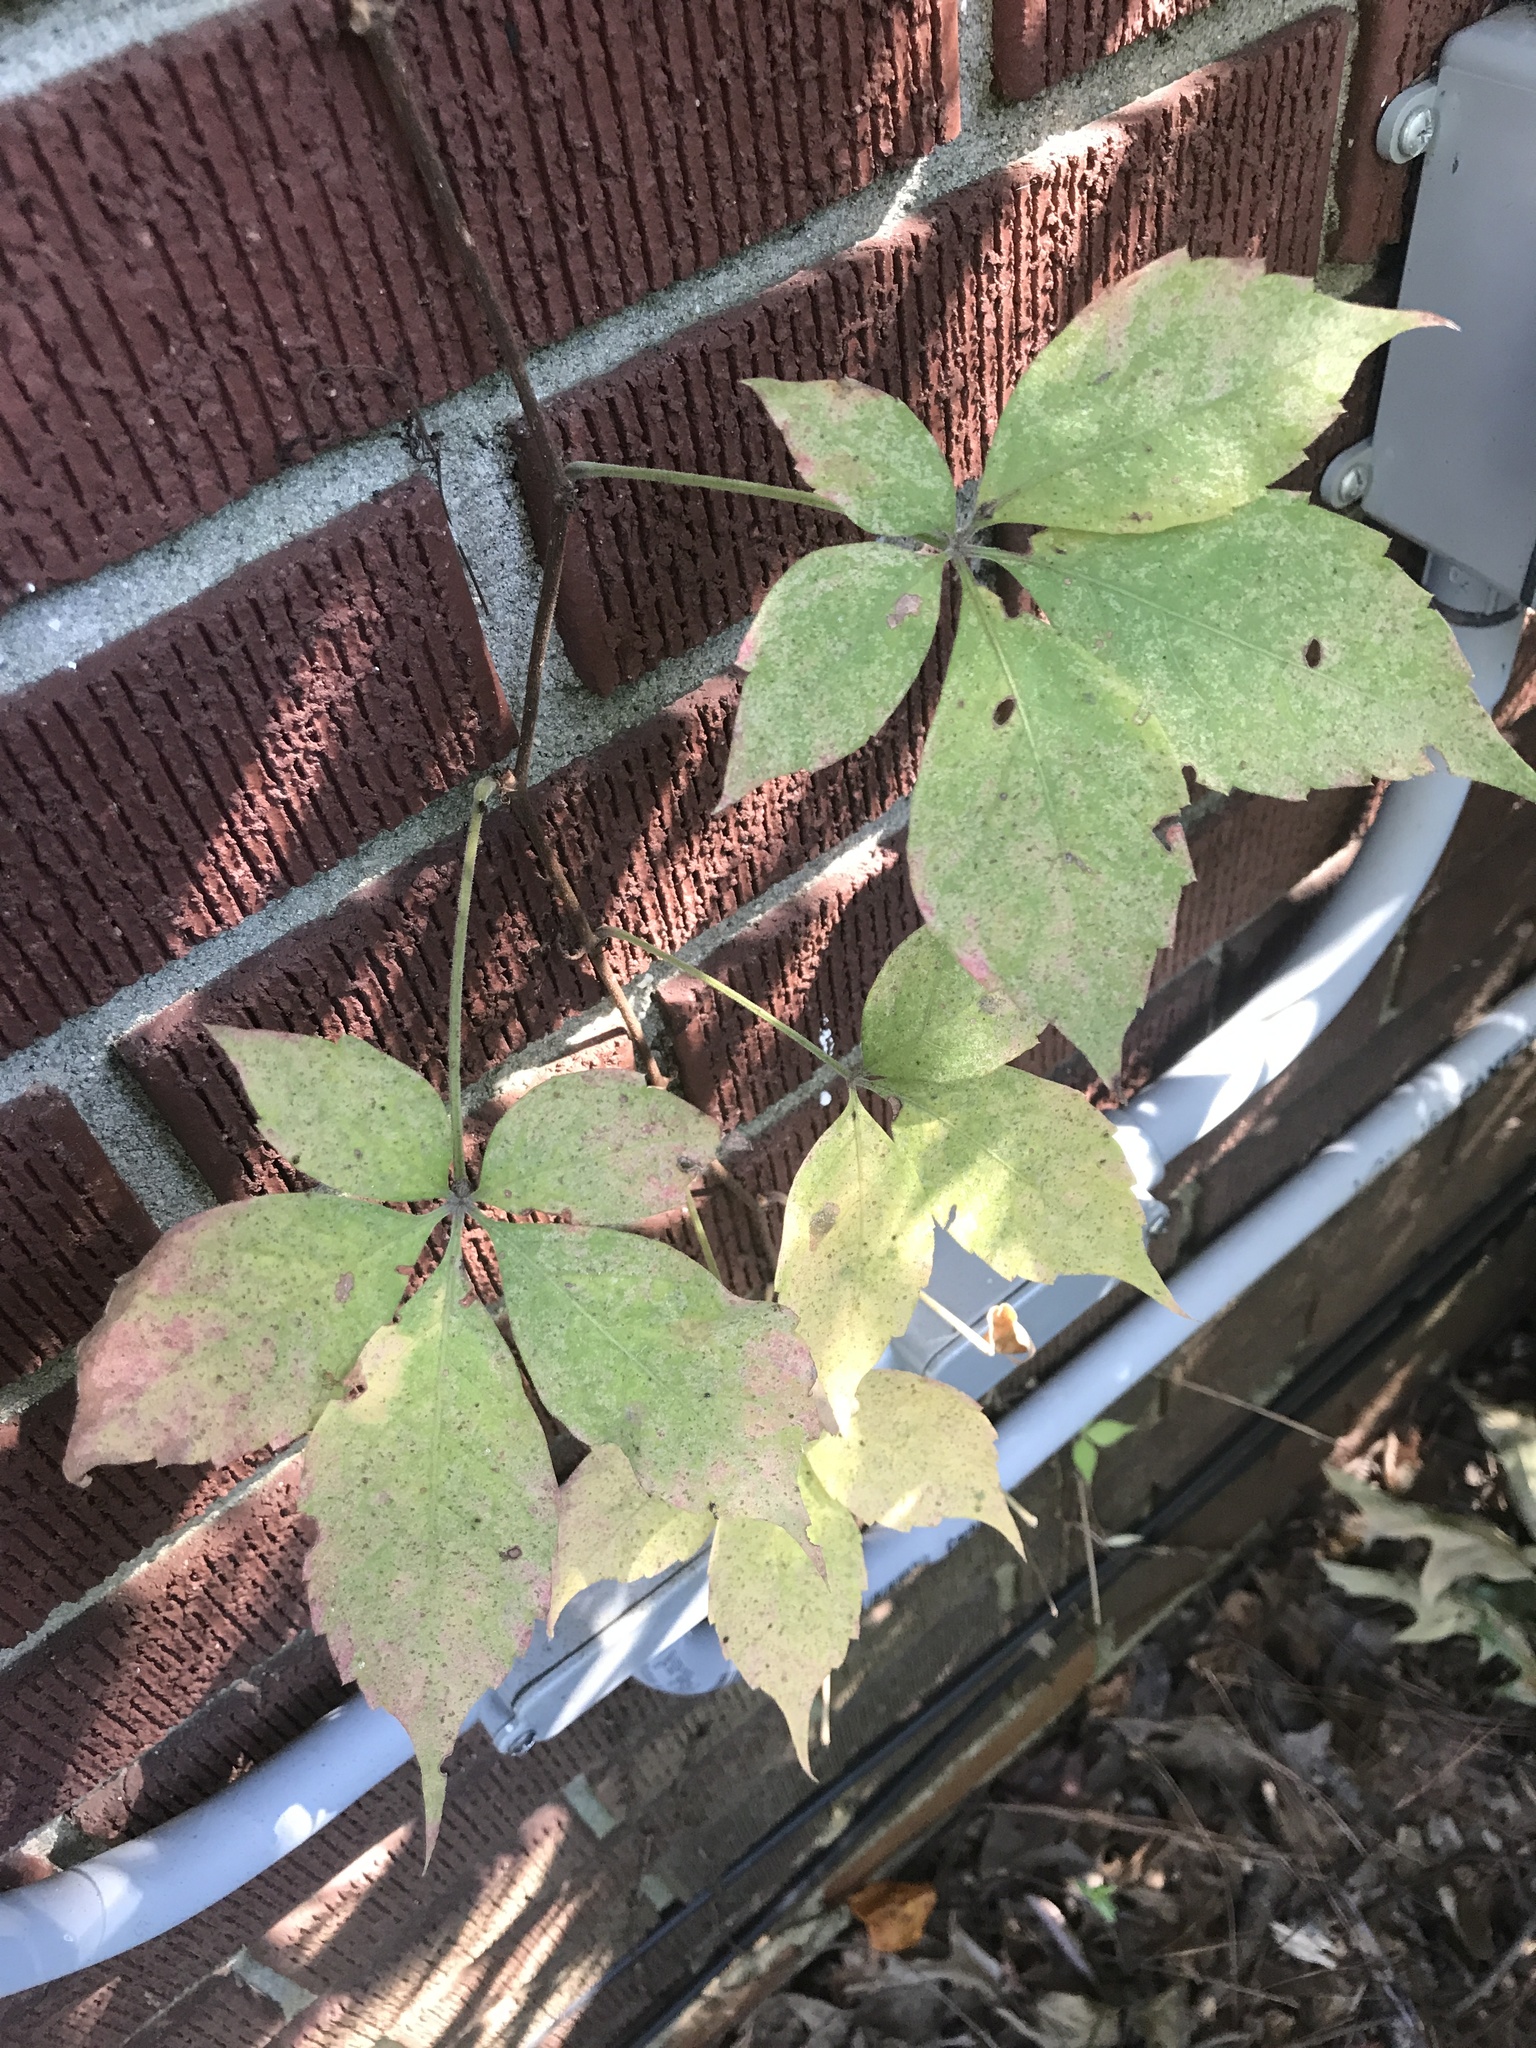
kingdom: Plantae
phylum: Tracheophyta
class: Magnoliopsida
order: Vitales
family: Vitaceae
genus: Parthenocissus
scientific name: Parthenocissus quinquefolia
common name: Virginia-creeper
